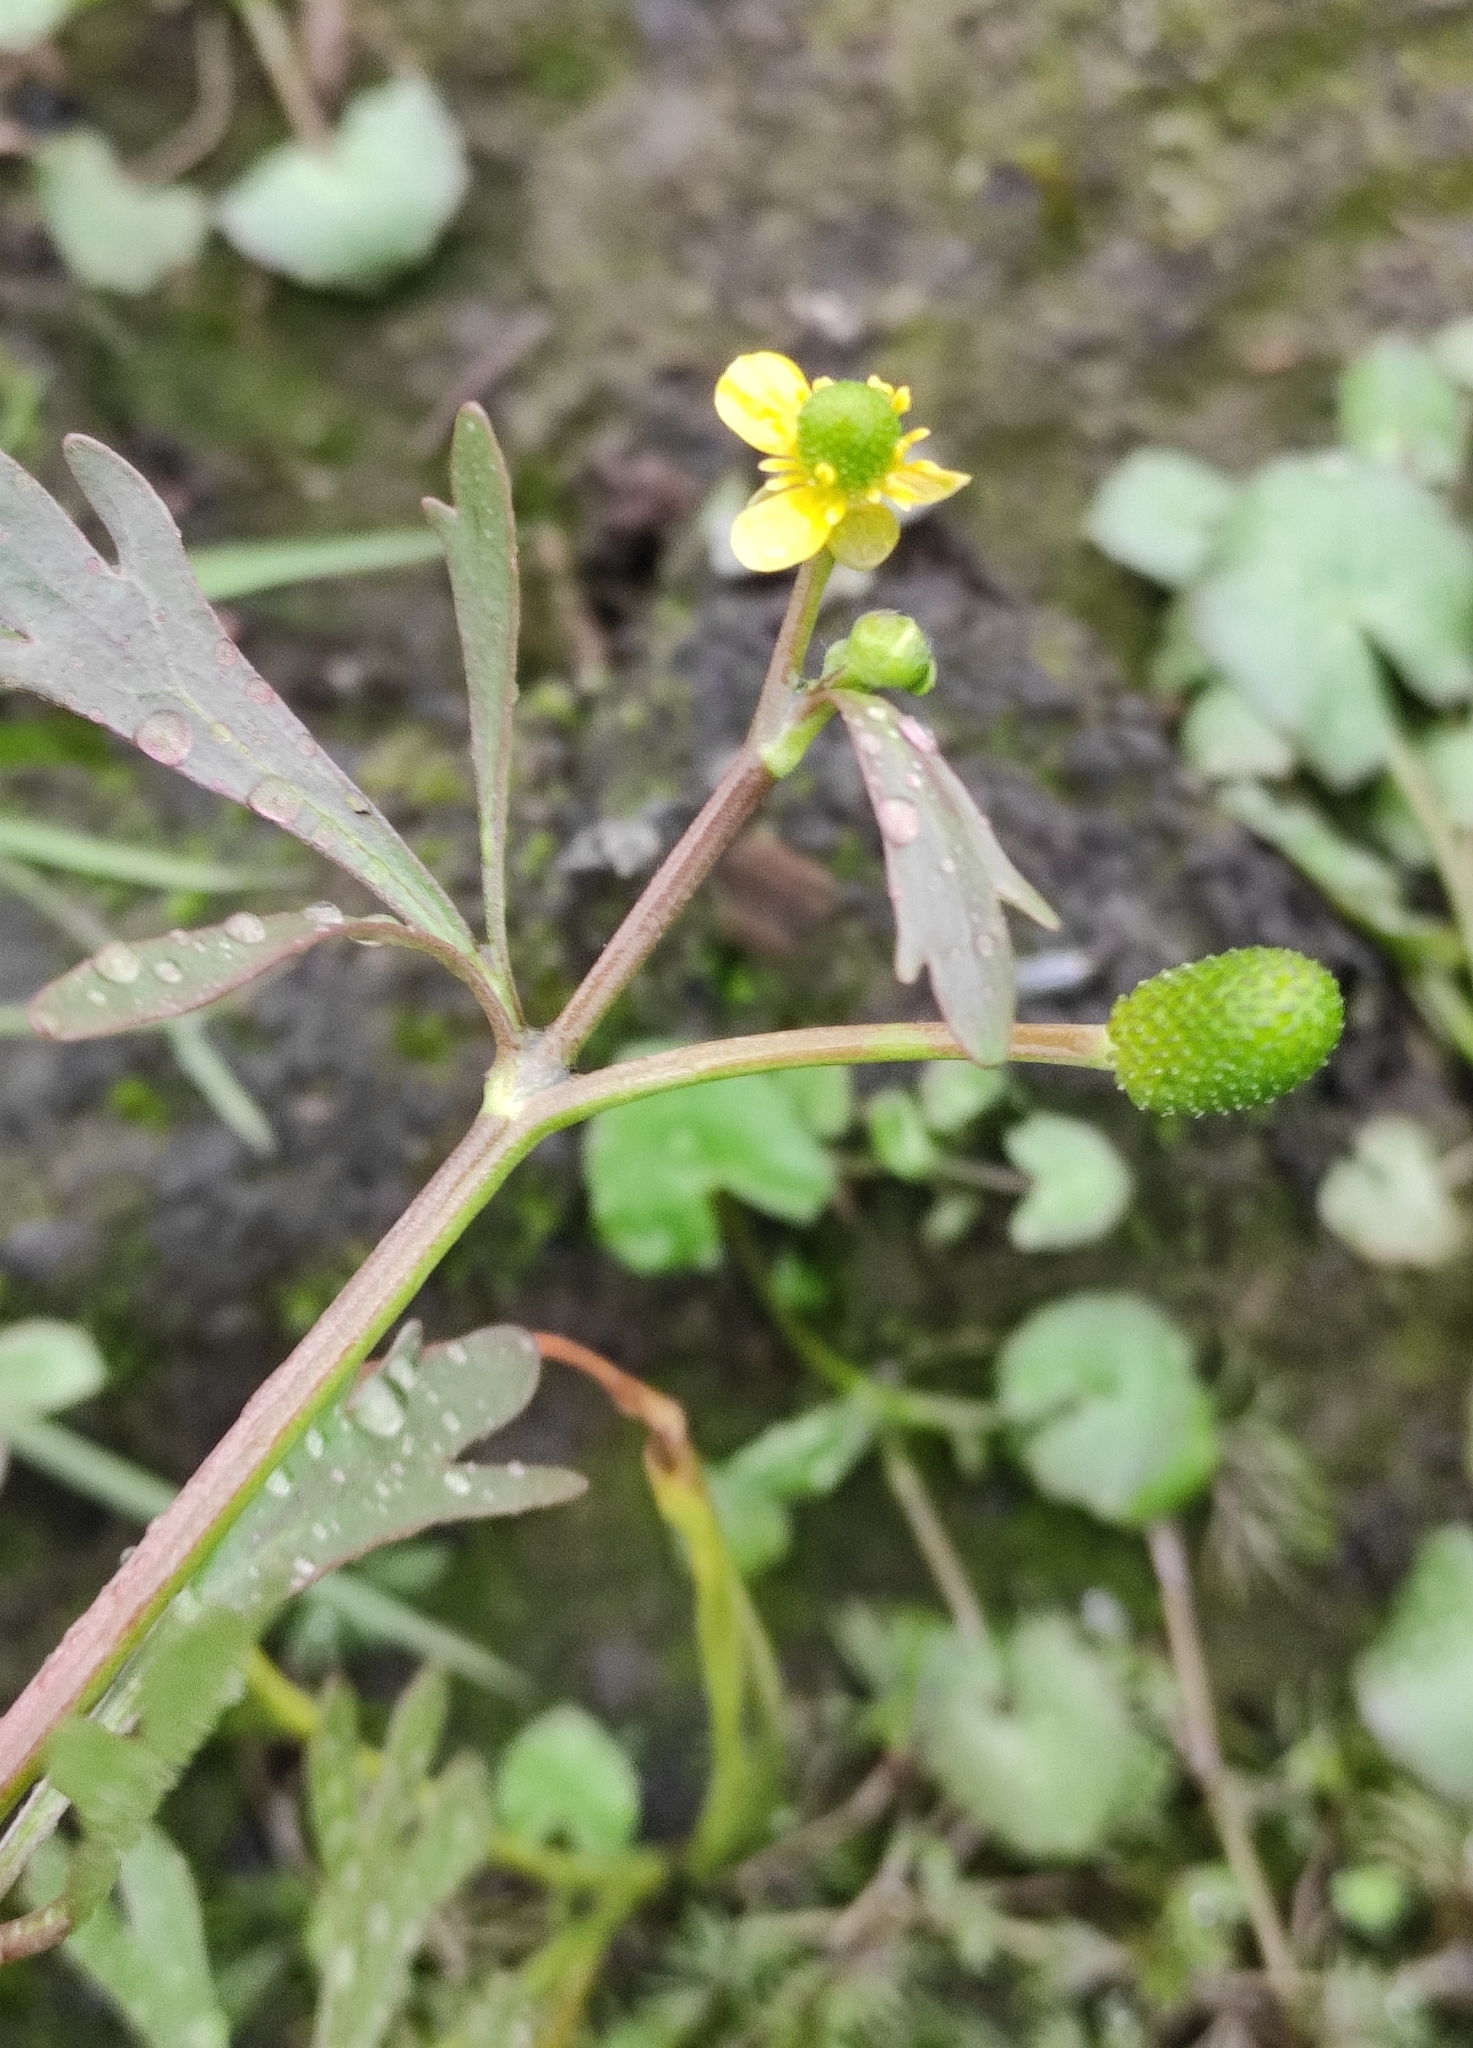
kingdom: Plantae
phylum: Tracheophyta
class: Magnoliopsida
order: Ranunculales
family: Ranunculaceae
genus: Ranunculus
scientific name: Ranunculus sceleratus
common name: Celery-leaved buttercup
